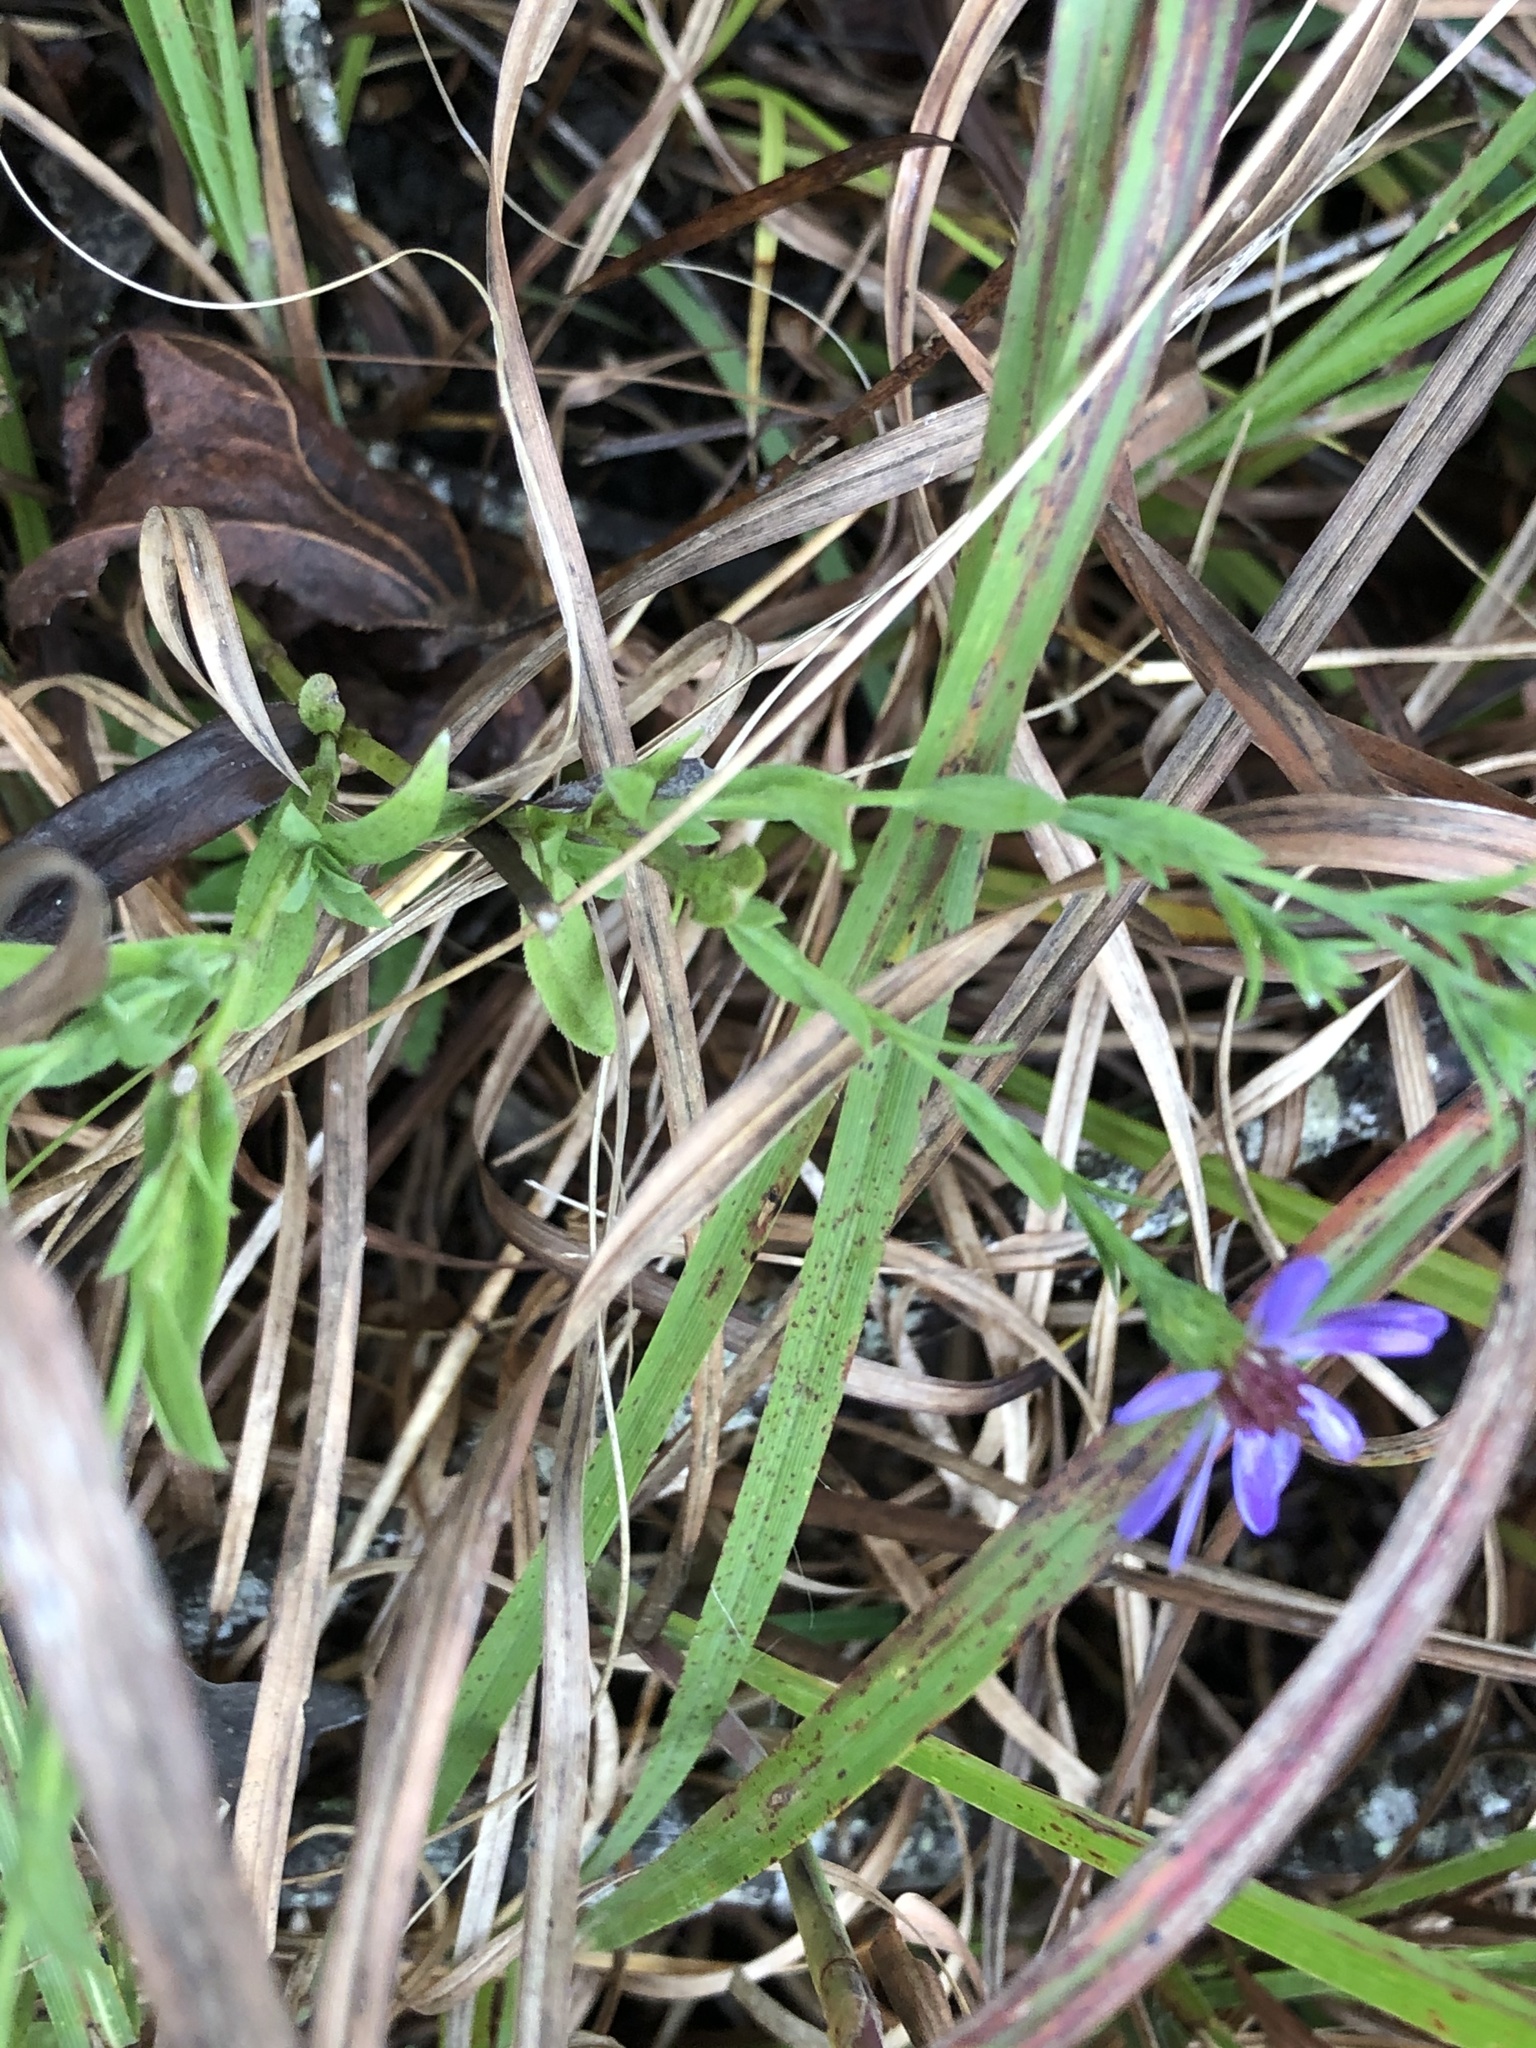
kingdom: Plantae
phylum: Tracheophyta
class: Magnoliopsida
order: Asterales
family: Asteraceae
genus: Symphyotrichum
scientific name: Symphyotrichum laeve
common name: Glaucous aster
